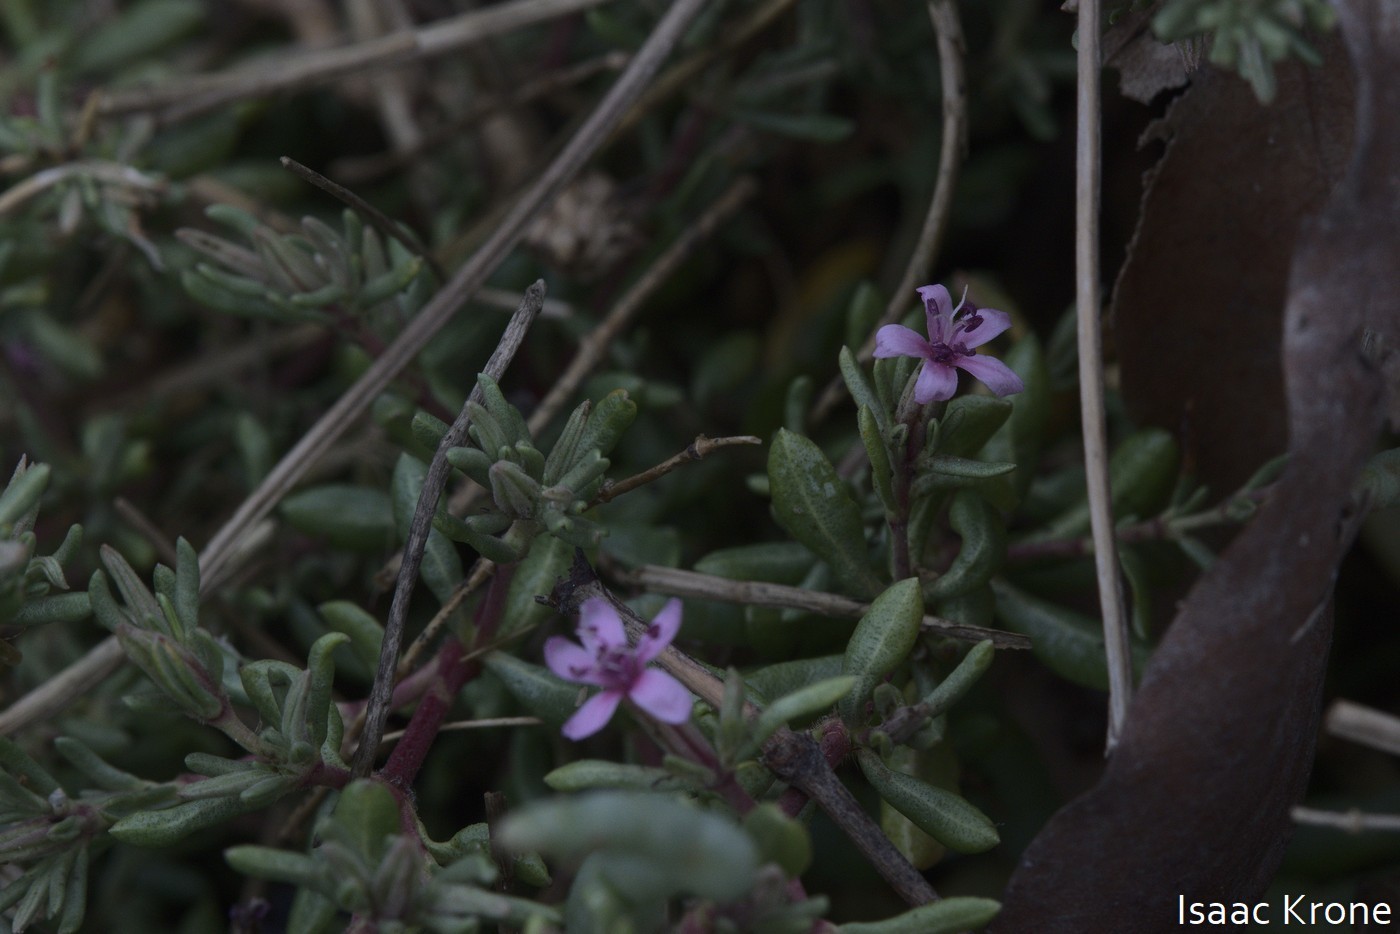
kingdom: Plantae
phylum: Tracheophyta
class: Magnoliopsida
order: Caryophyllales
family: Frankeniaceae
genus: Frankenia
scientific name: Frankenia salina
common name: Alkali seaheath
